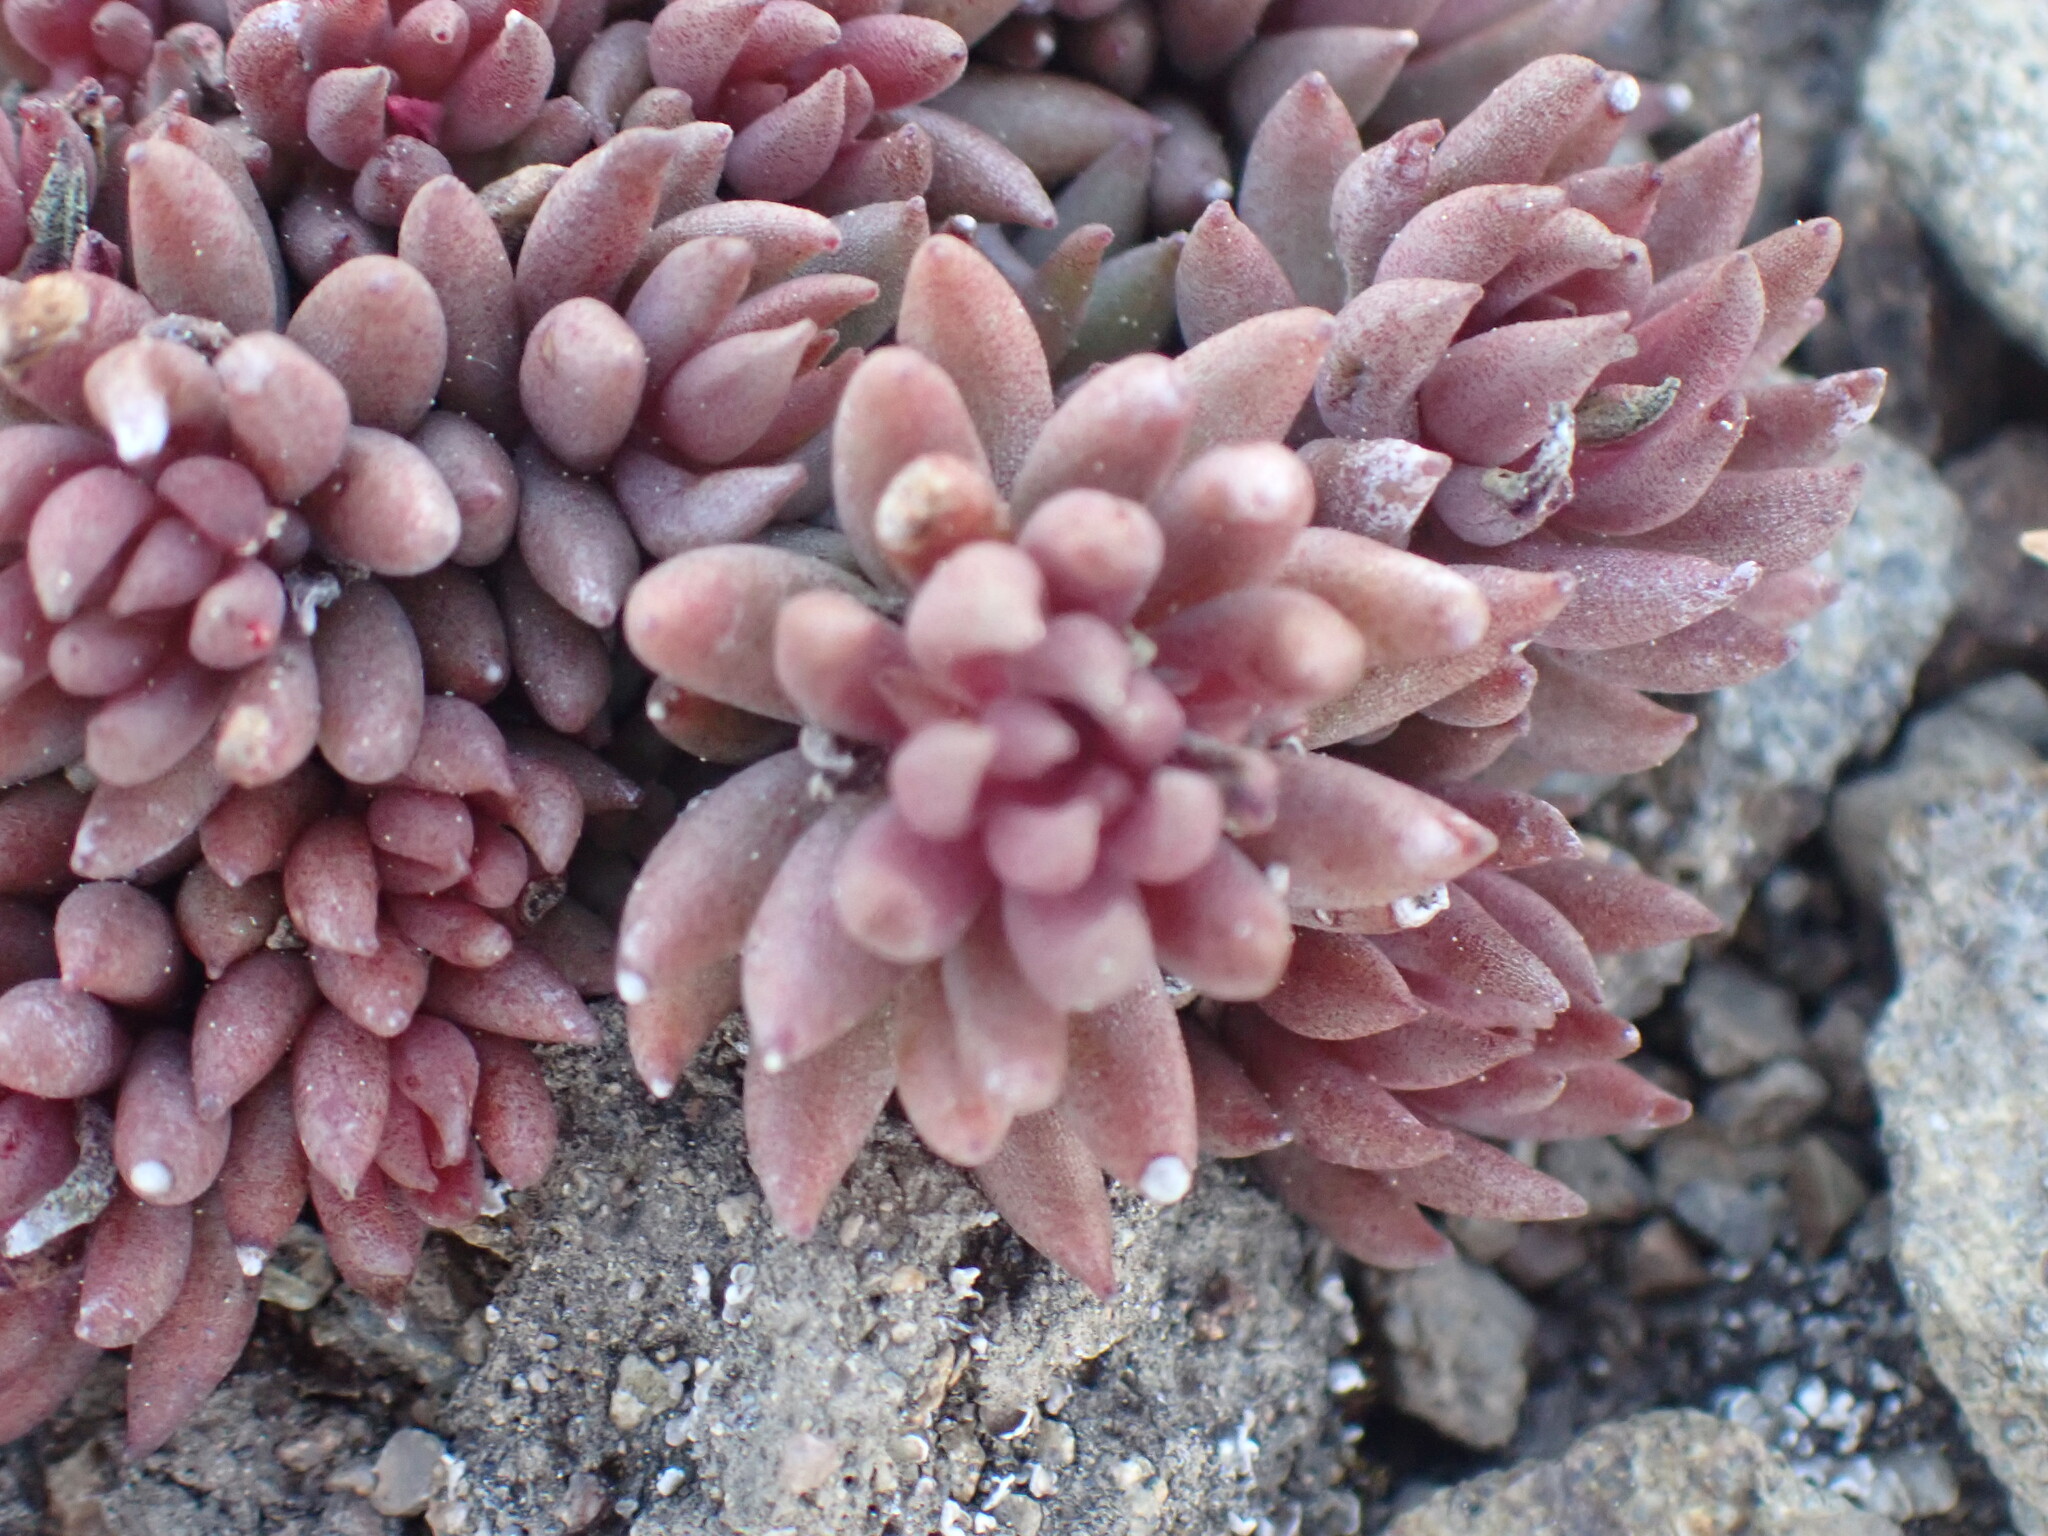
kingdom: Plantae
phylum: Tracheophyta
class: Magnoliopsida
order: Saxifragales
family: Crassulaceae
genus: Sedum
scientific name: Sedum lanceolatum
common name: Common stonecrop
